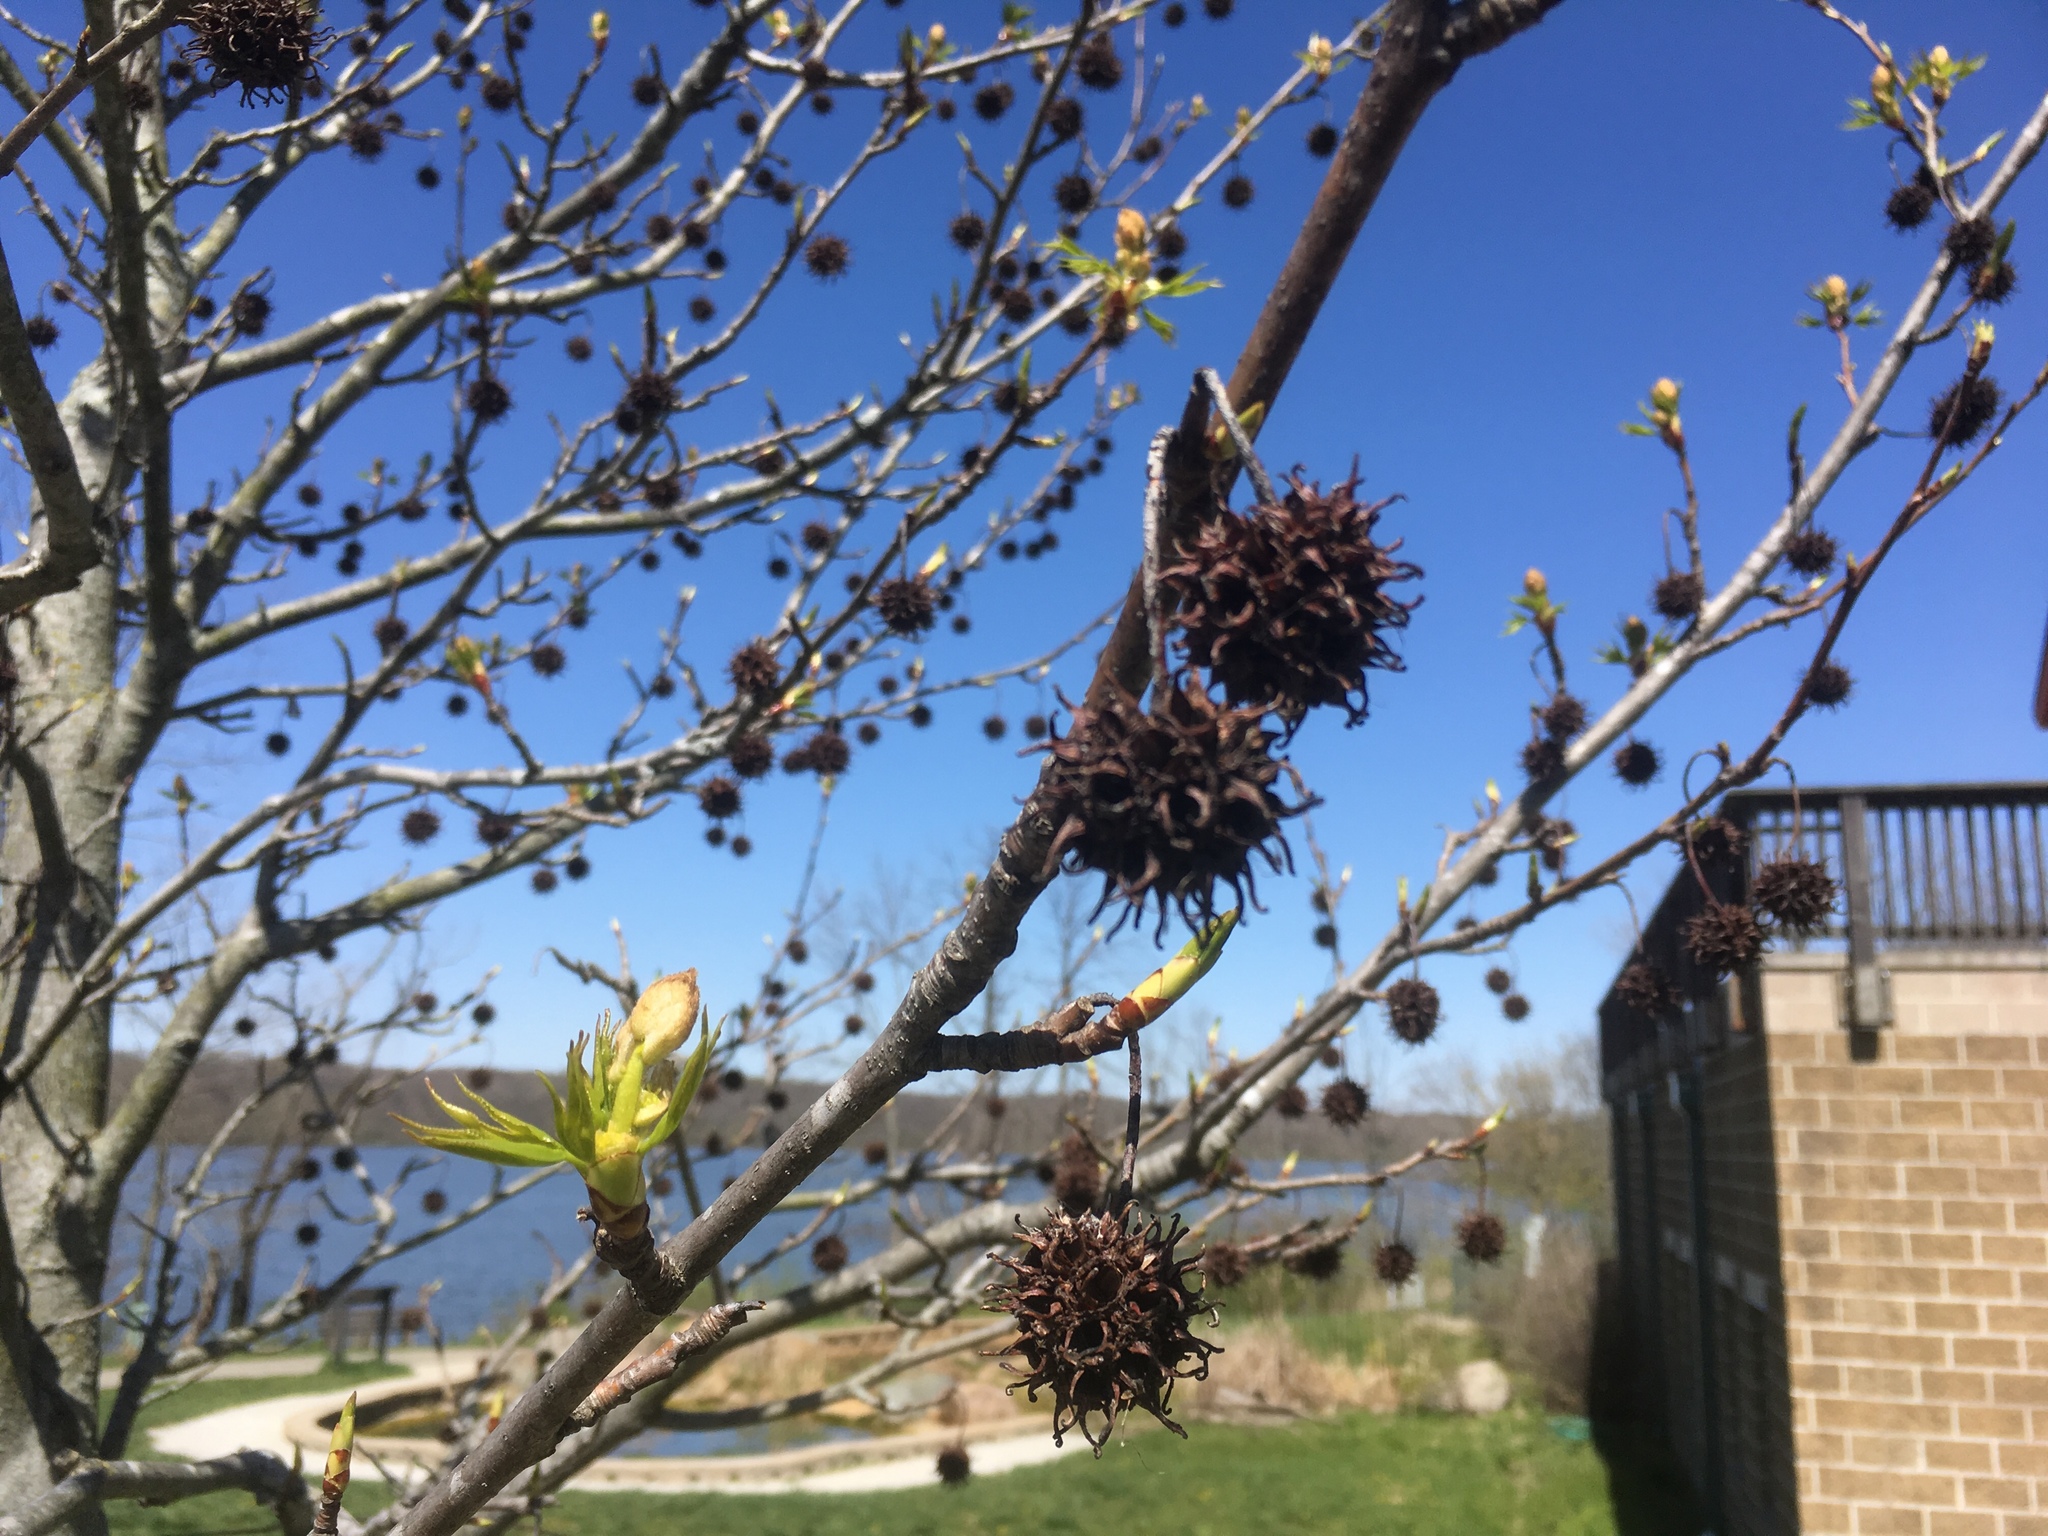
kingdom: Plantae
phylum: Tracheophyta
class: Magnoliopsida
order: Saxifragales
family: Altingiaceae
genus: Liquidambar
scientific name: Liquidambar styraciflua
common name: Sweet gum
